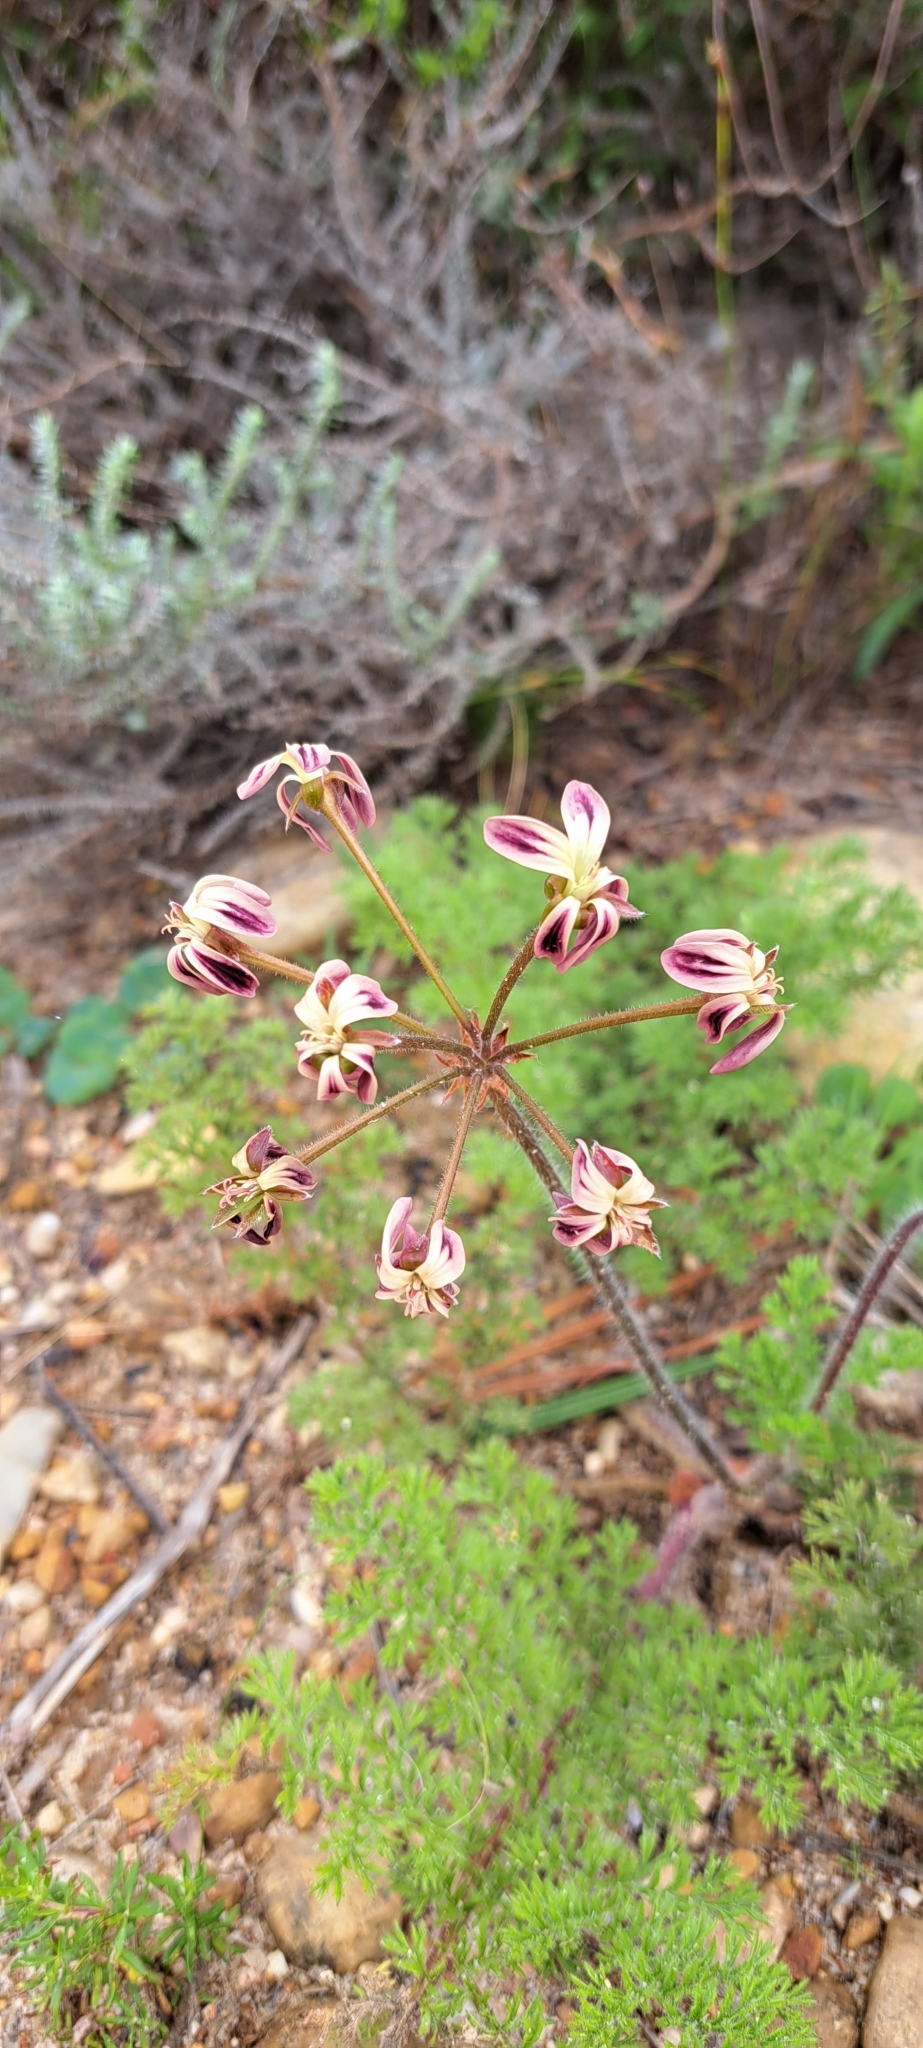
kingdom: Plantae
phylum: Tracheophyta
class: Magnoliopsida
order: Geraniales
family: Geraniaceae
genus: Pelargonium
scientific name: Pelargonium triste
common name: Night-scent pelargonium
